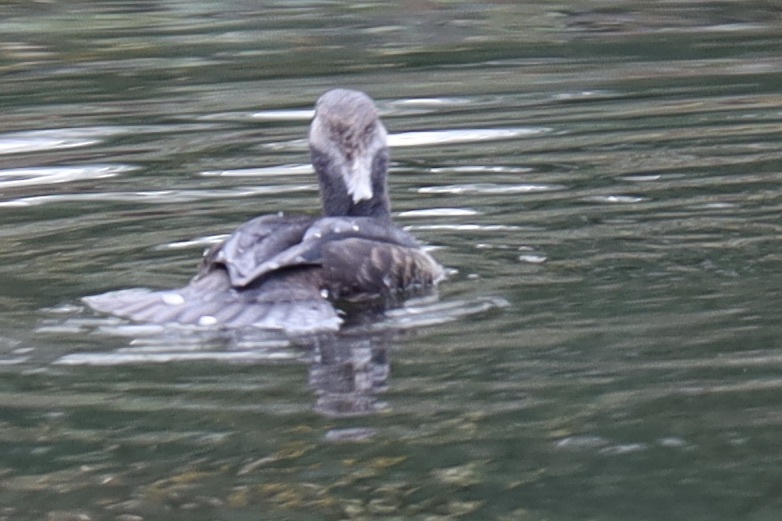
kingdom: Animalia
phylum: Chordata
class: Aves
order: Anseriformes
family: Anatidae
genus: Lophodytes
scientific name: Lophodytes cucullatus
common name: Hooded merganser
